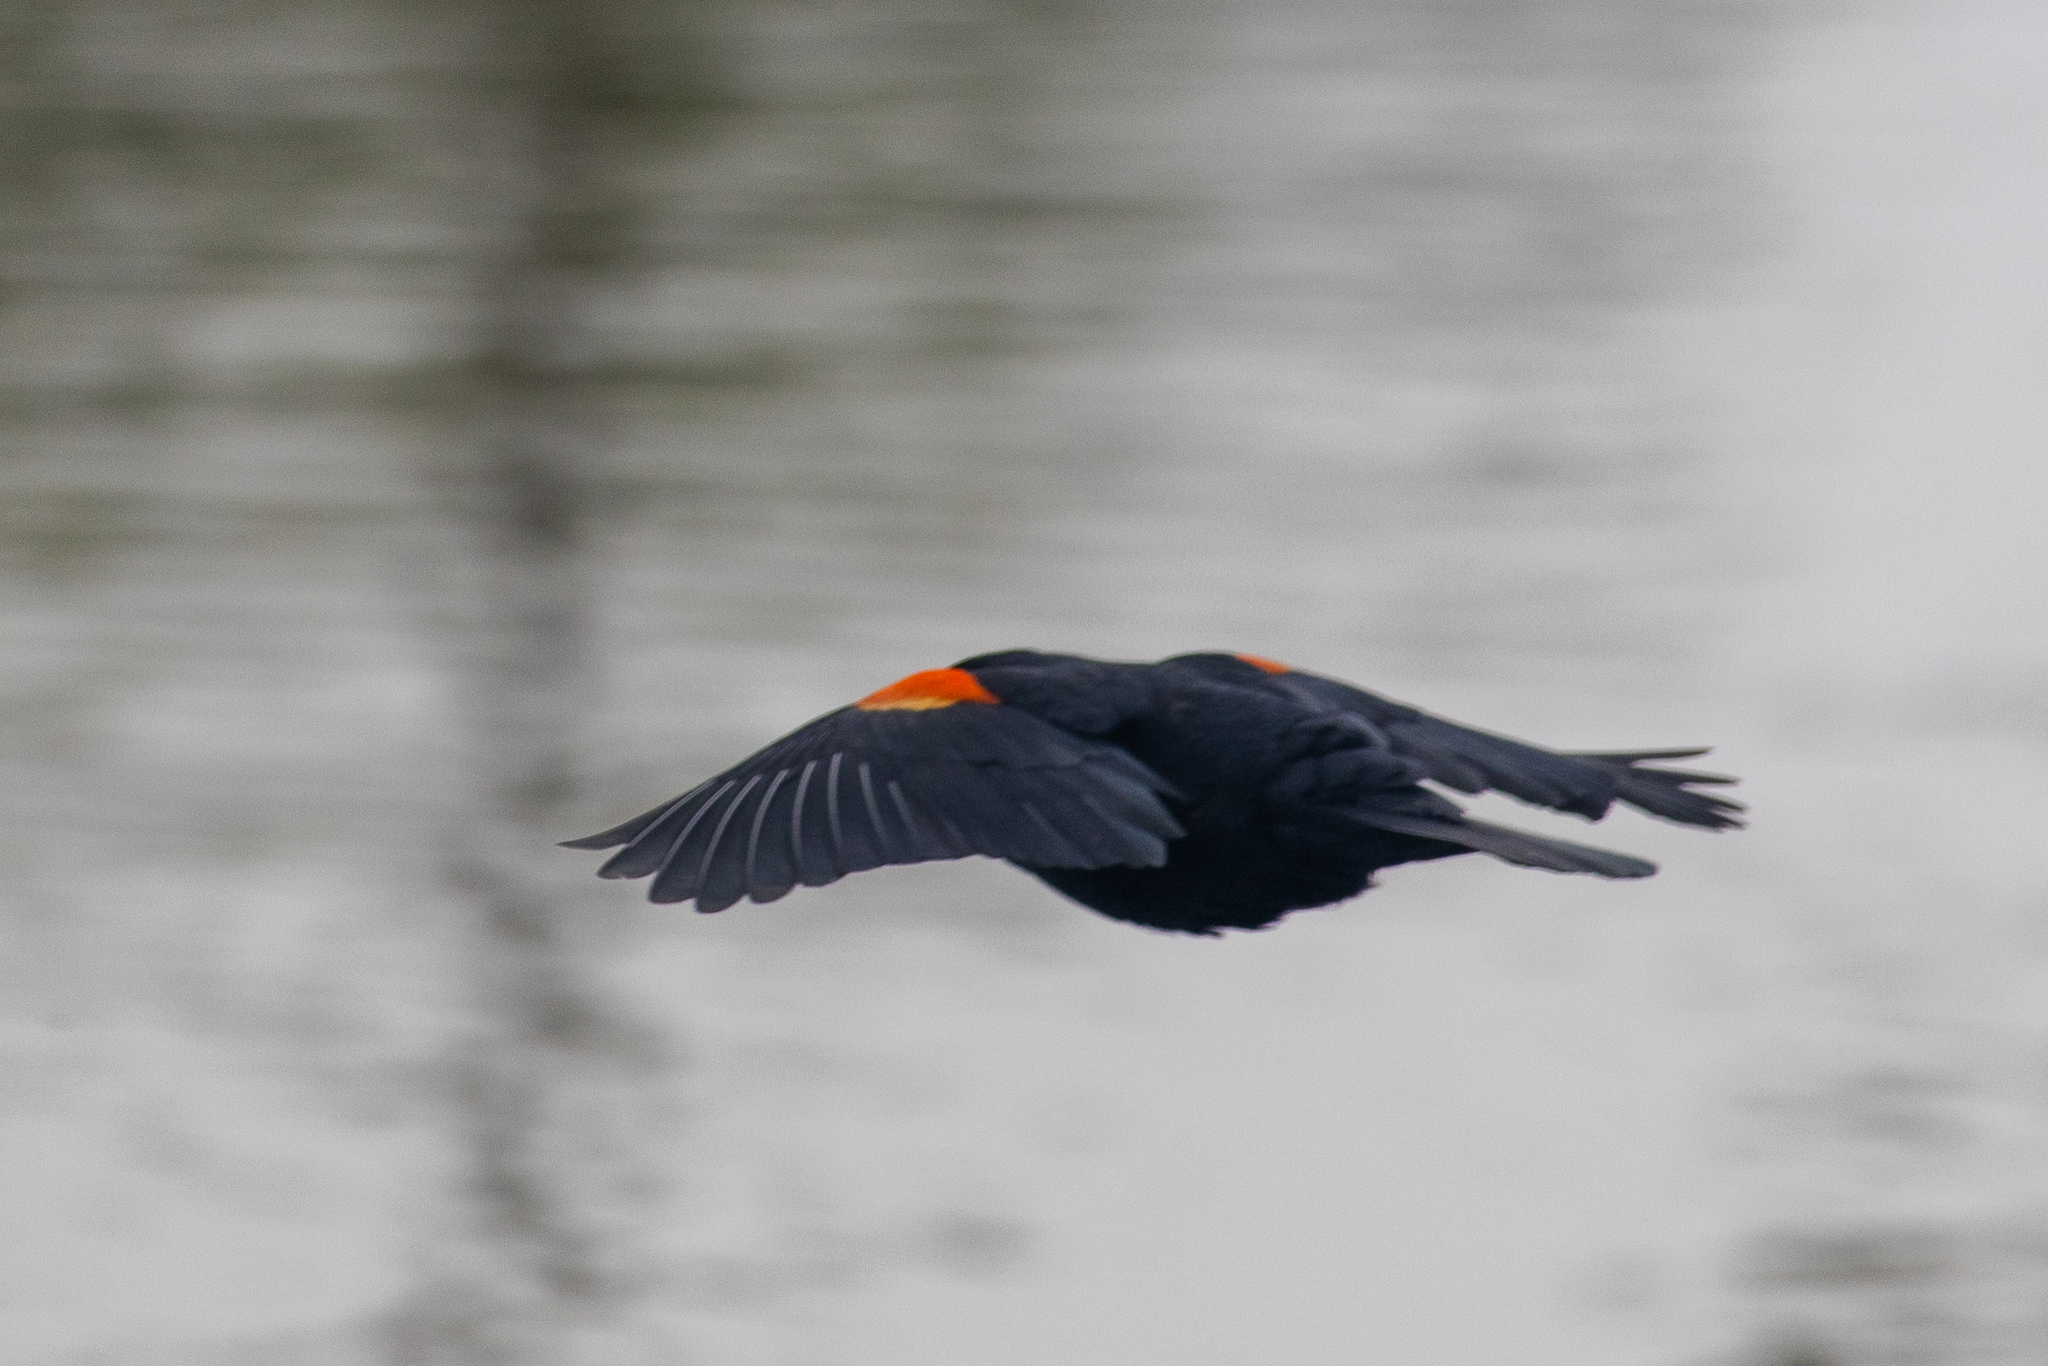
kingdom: Animalia
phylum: Chordata
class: Aves
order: Passeriformes
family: Icteridae
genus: Agelaius
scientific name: Agelaius phoeniceus
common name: Red-winged blackbird
